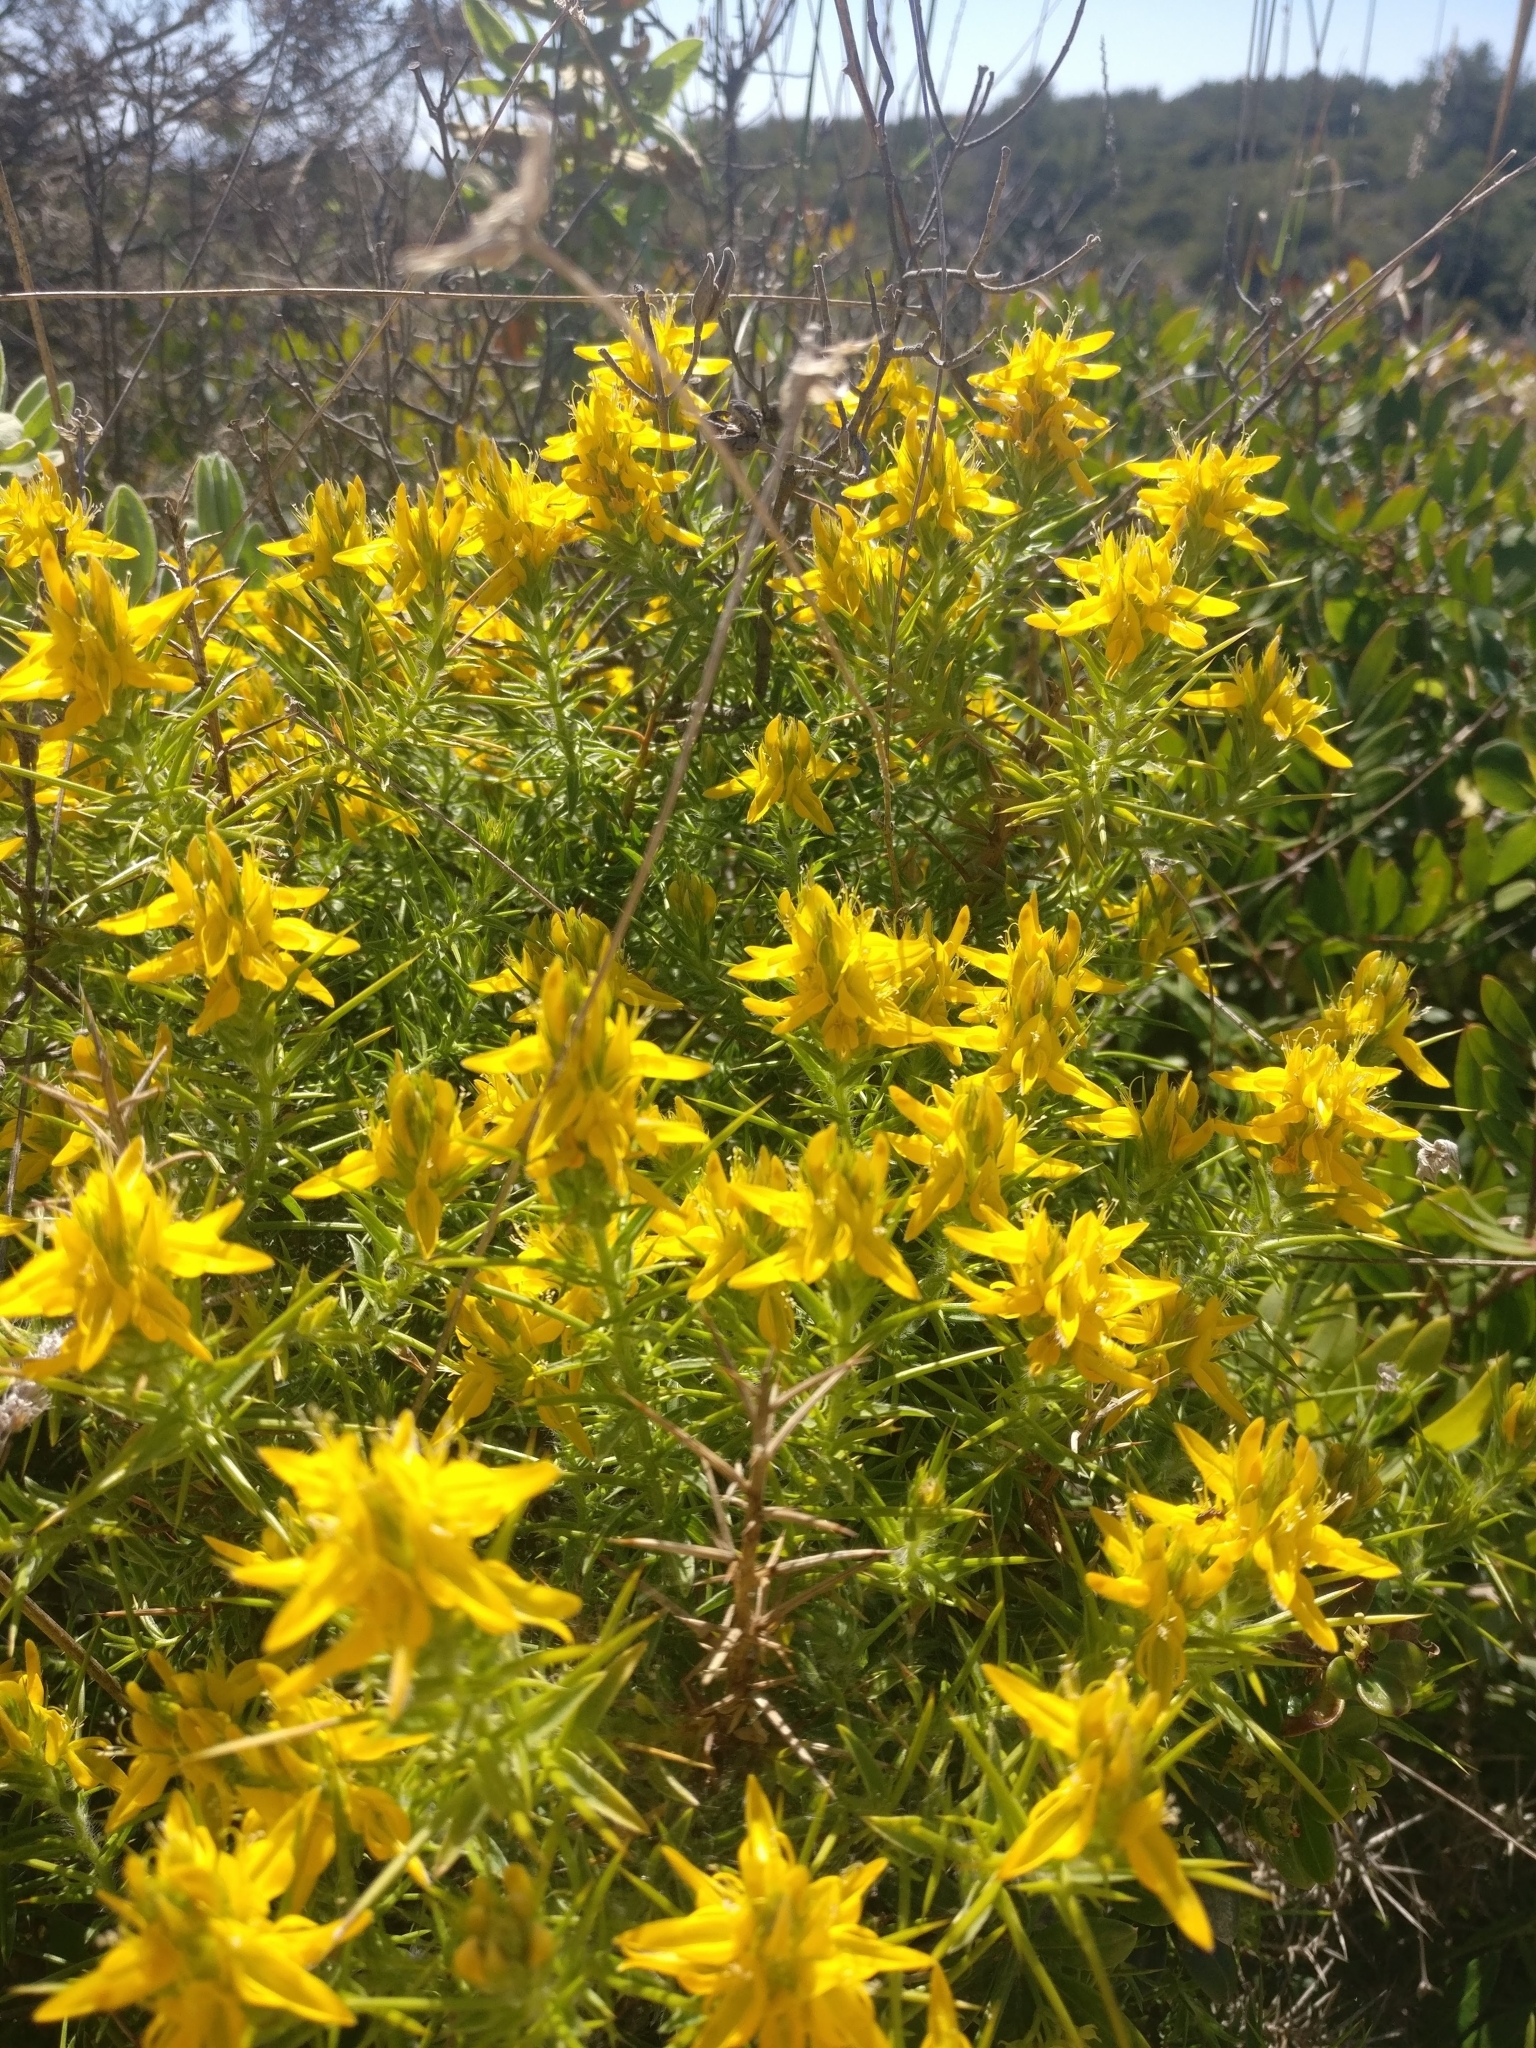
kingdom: Plantae
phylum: Tracheophyta
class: Magnoliopsida
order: Fabales
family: Fabaceae
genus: Genista
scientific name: Genista hirsuta
